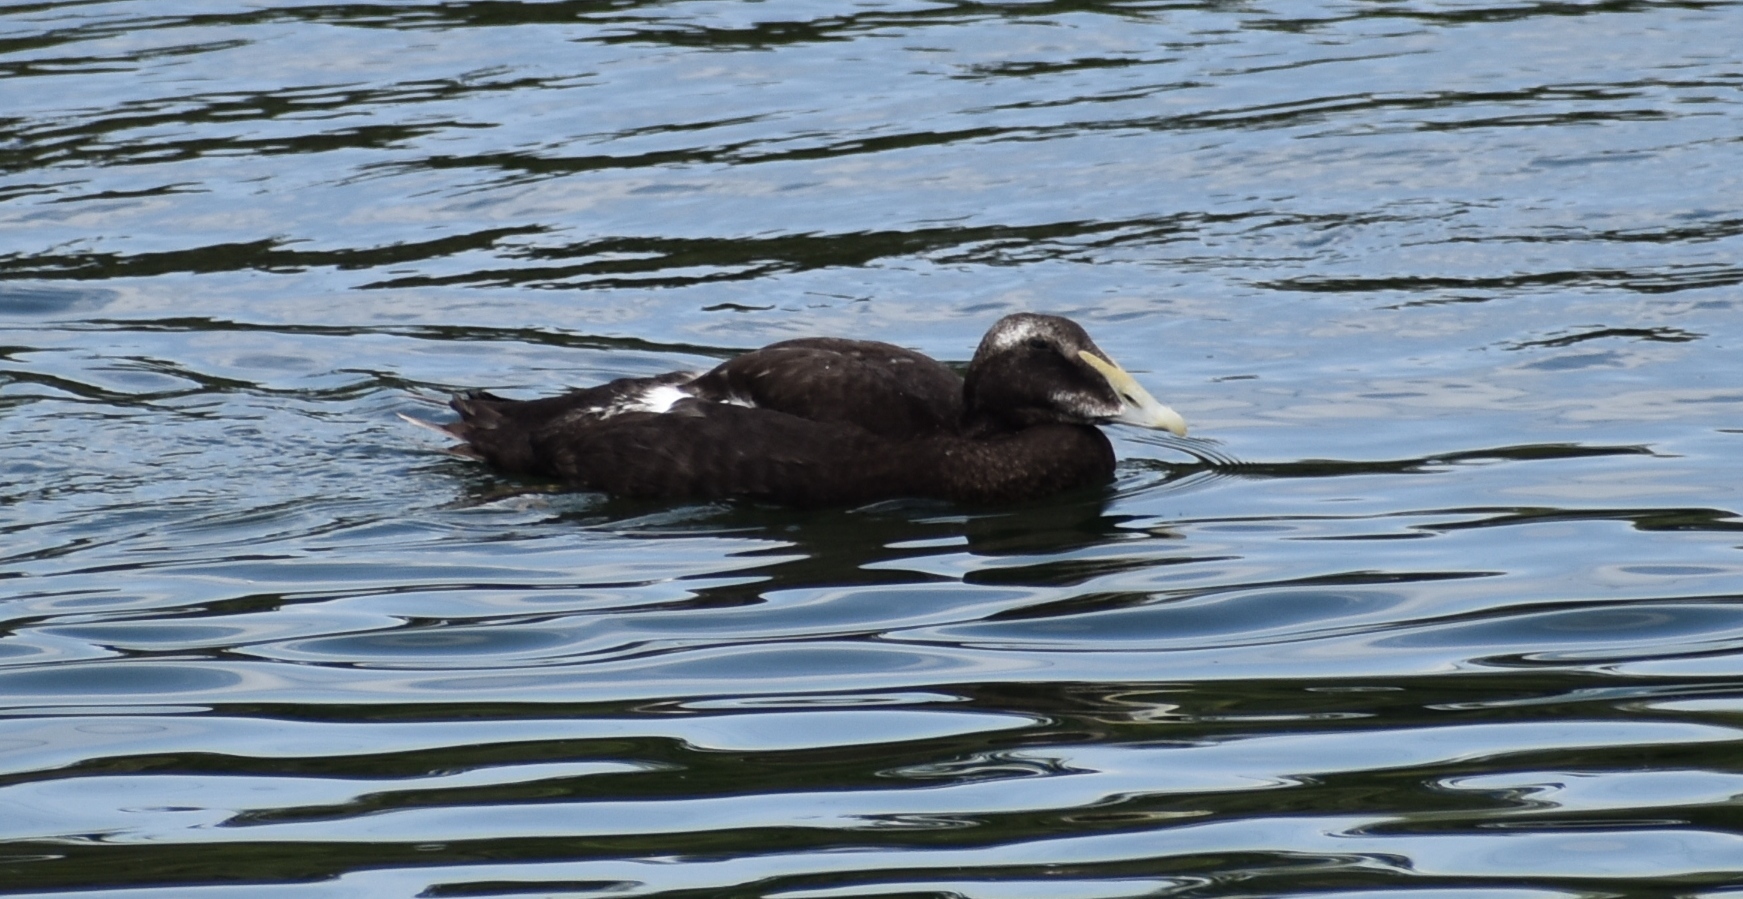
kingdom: Animalia
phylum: Chordata
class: Aves
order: Anseriformes
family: Anatidae
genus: Somateria
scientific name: Somateria mollissima
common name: Common eider
